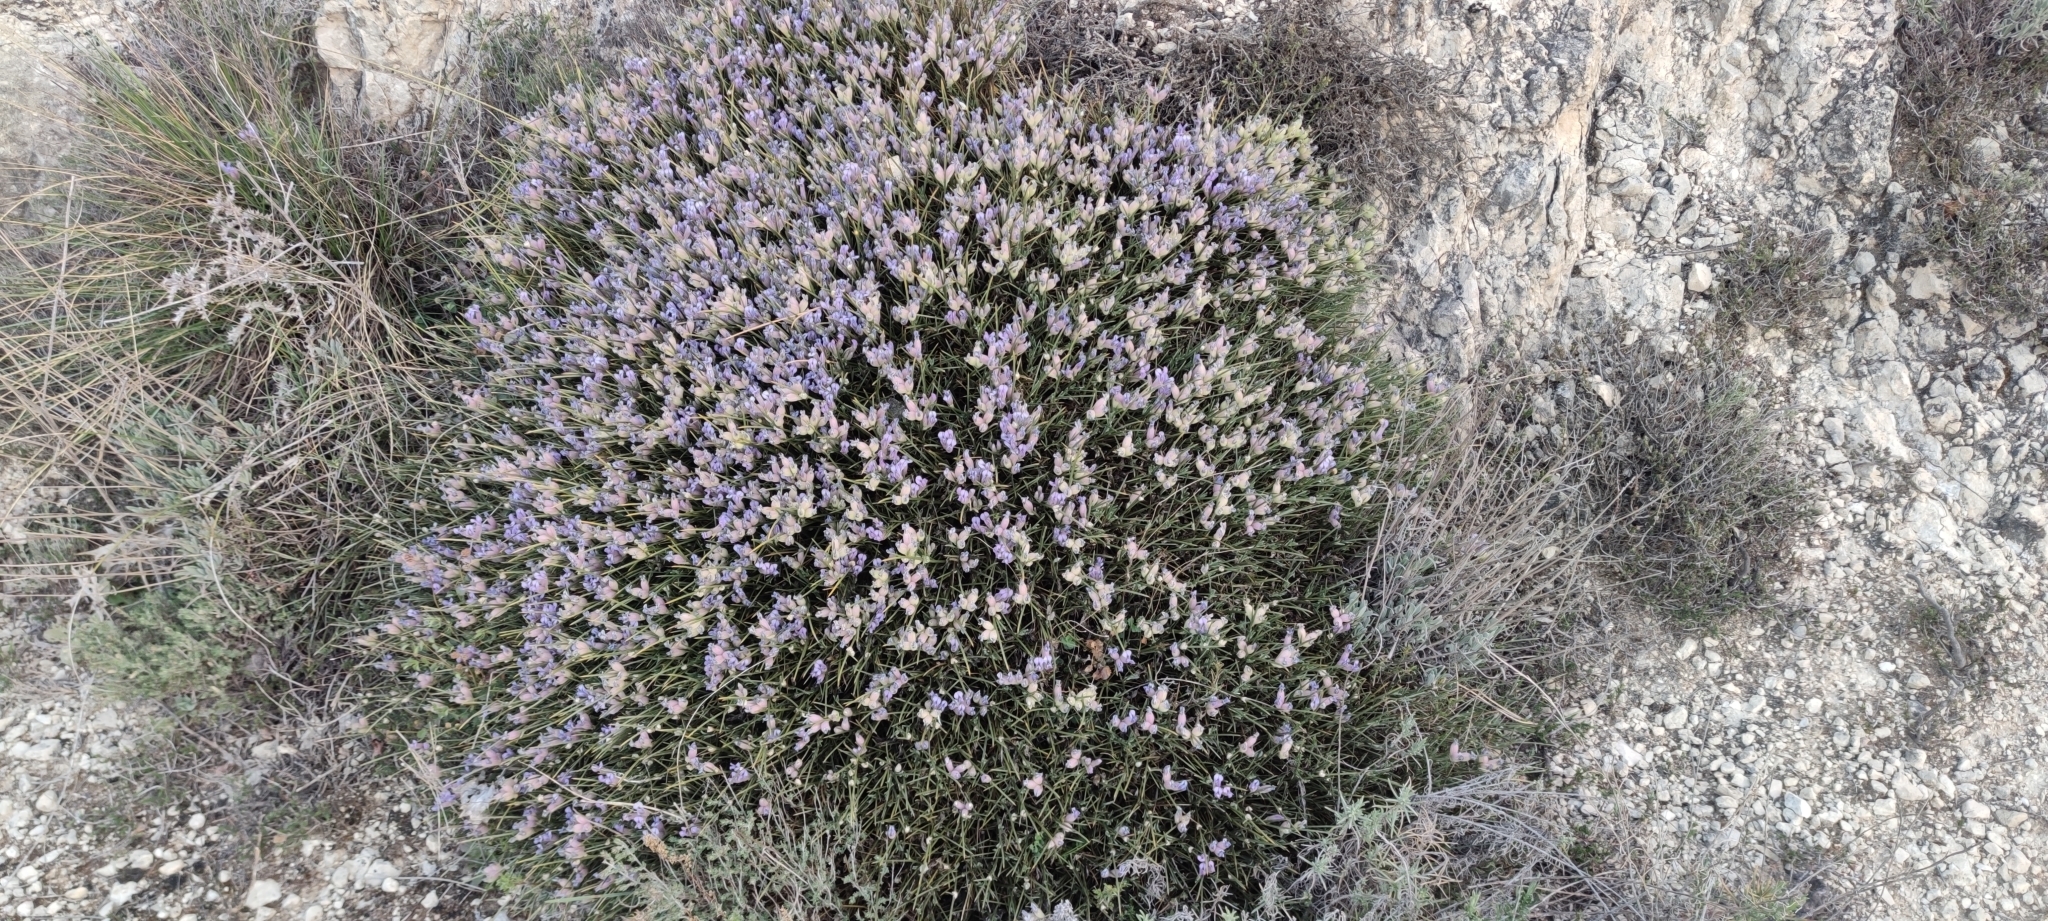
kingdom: Plantae
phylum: Tracheophyta
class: Magnoliopsida
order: Fabales
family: Fabaceae
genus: Erinacea
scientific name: Erinacea anthyllis
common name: Hedgehog-broom
